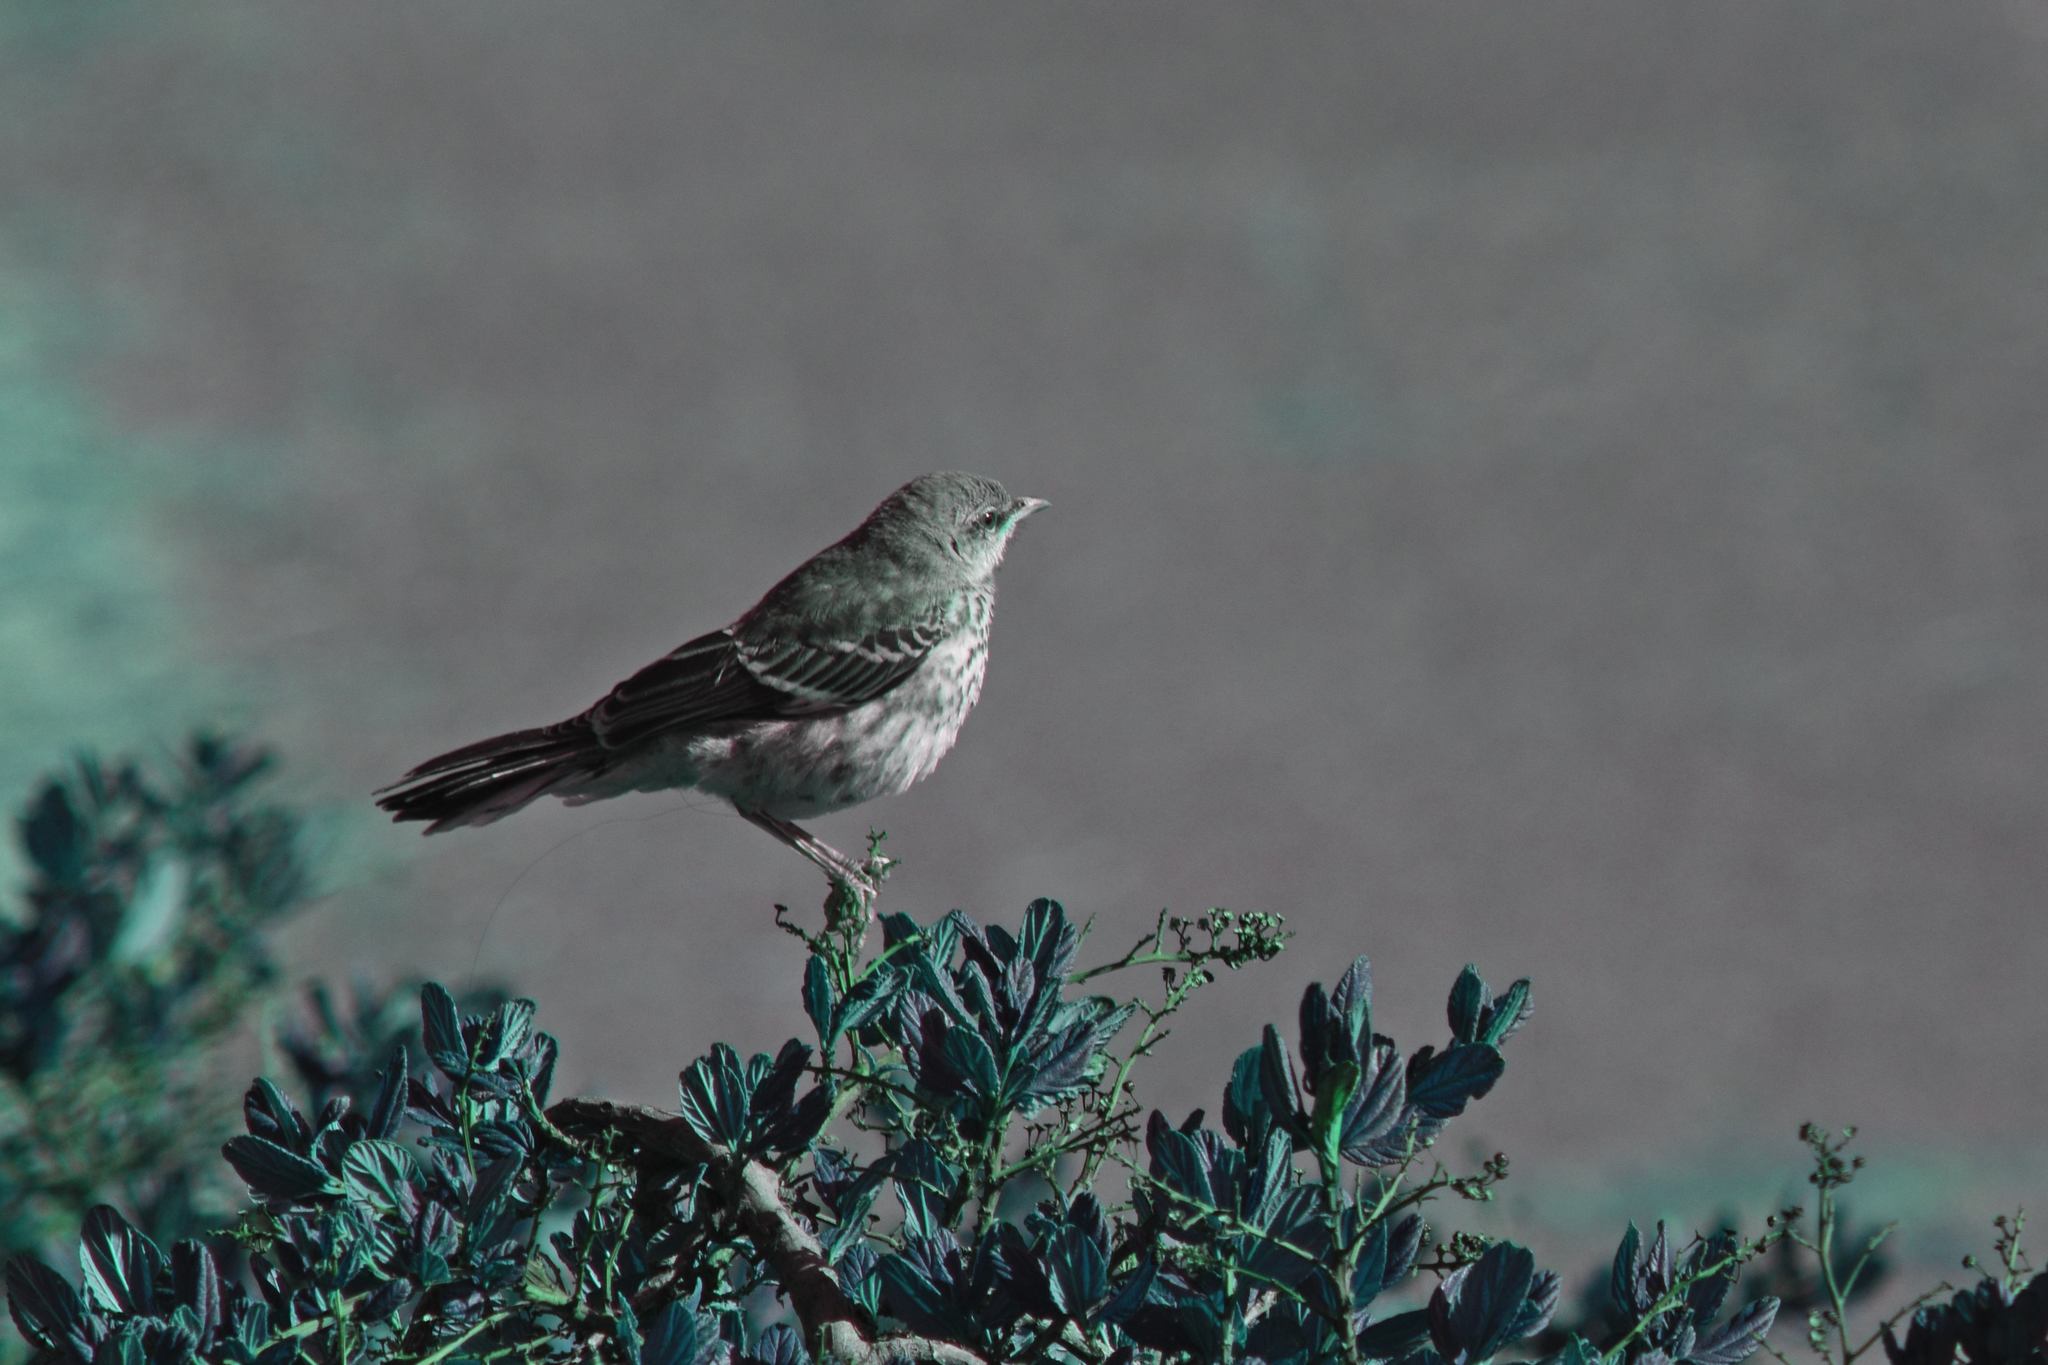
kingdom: Animalia
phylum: Chordata
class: Aves
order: Passeriformes
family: Mimidae
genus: Mimus
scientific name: Mimus polyglottos
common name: Northern mockingbird
